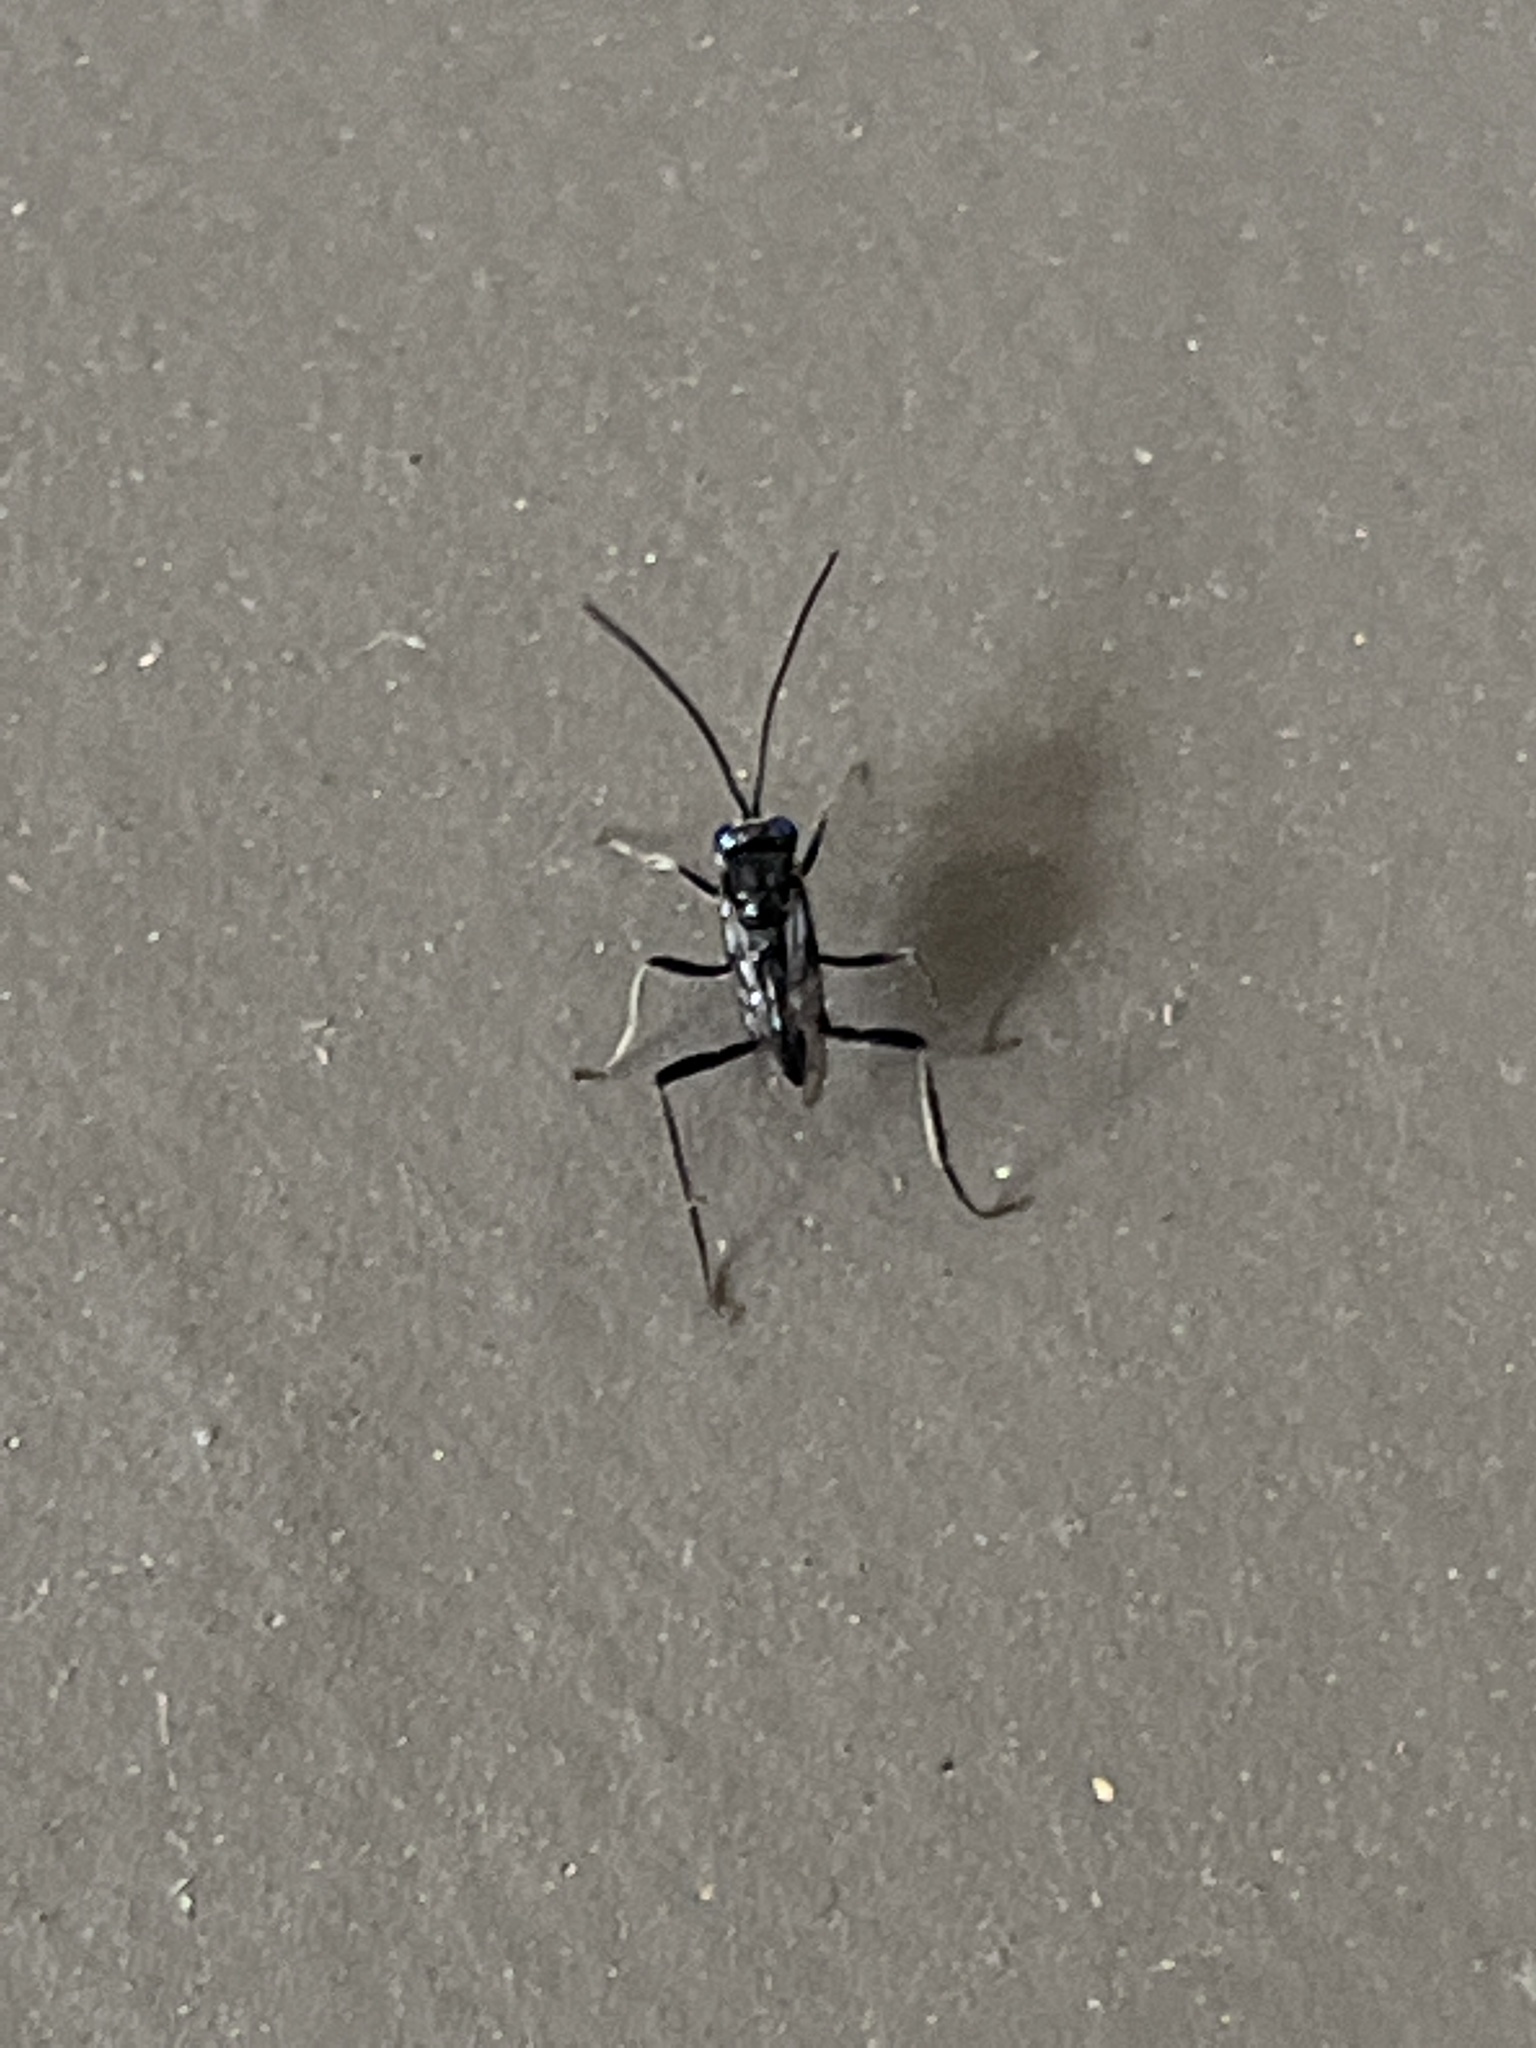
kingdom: Animalia
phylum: Arthropoda
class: Insecta
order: Hymenoptera
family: Evaniidae
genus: Evania
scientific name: Evania appendigaster
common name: Ensign wasp
